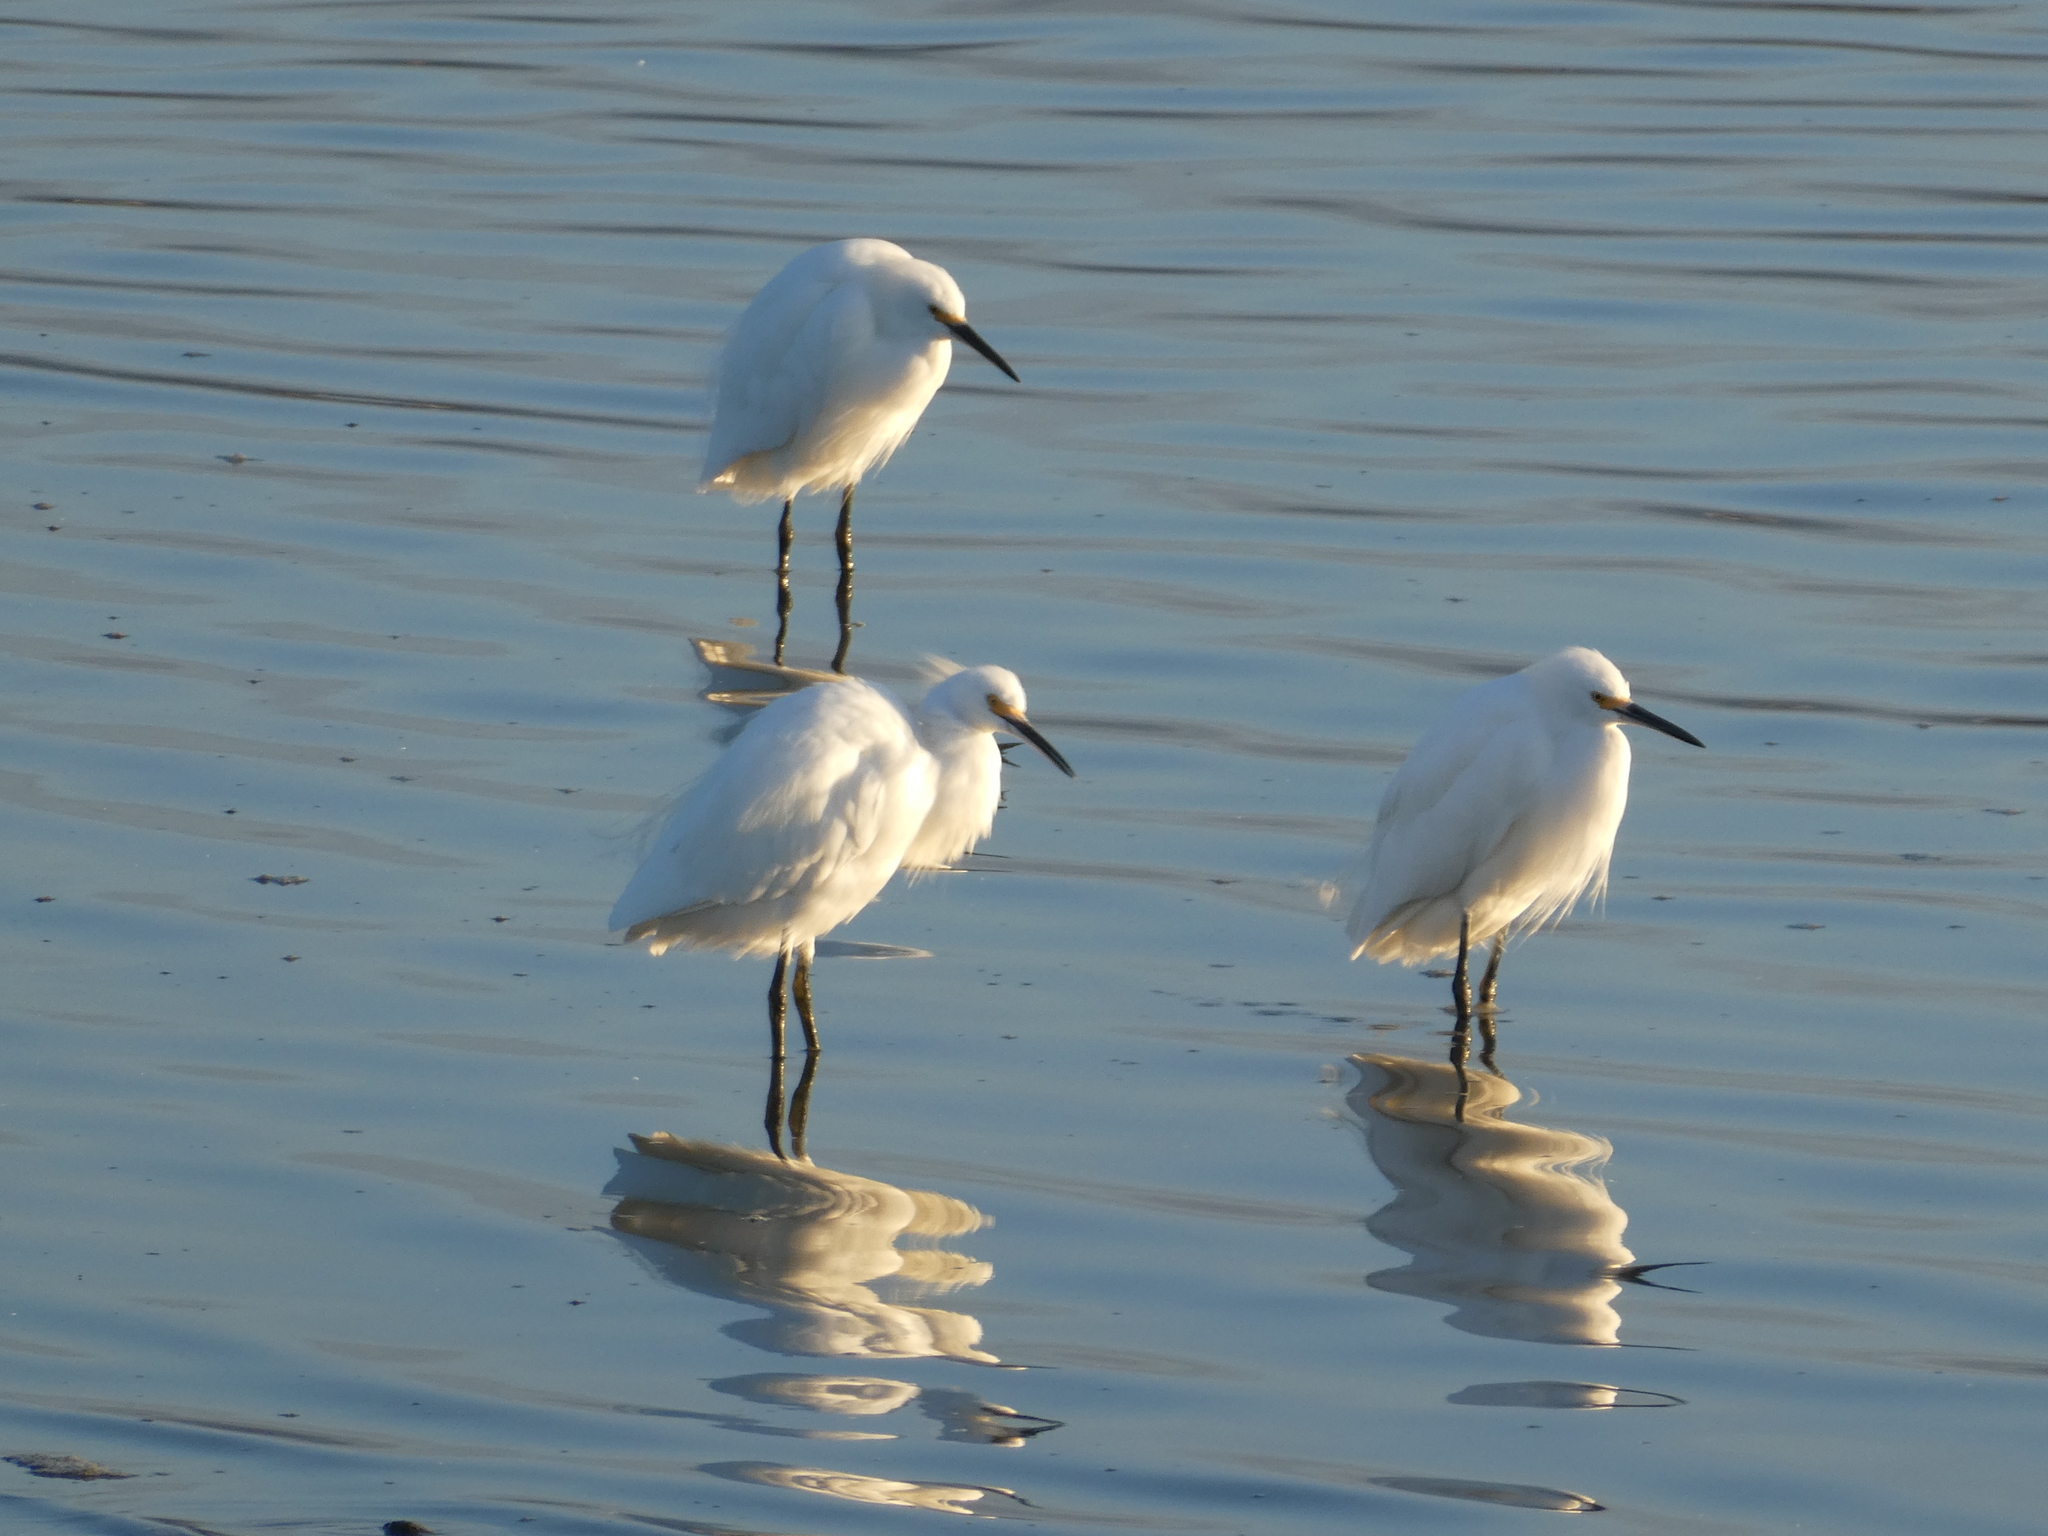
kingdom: Animalia
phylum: Chordata
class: Aves
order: Pelecaniformes
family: Ardeidae
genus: Egretta
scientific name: Egretta thula
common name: Snowy egret
